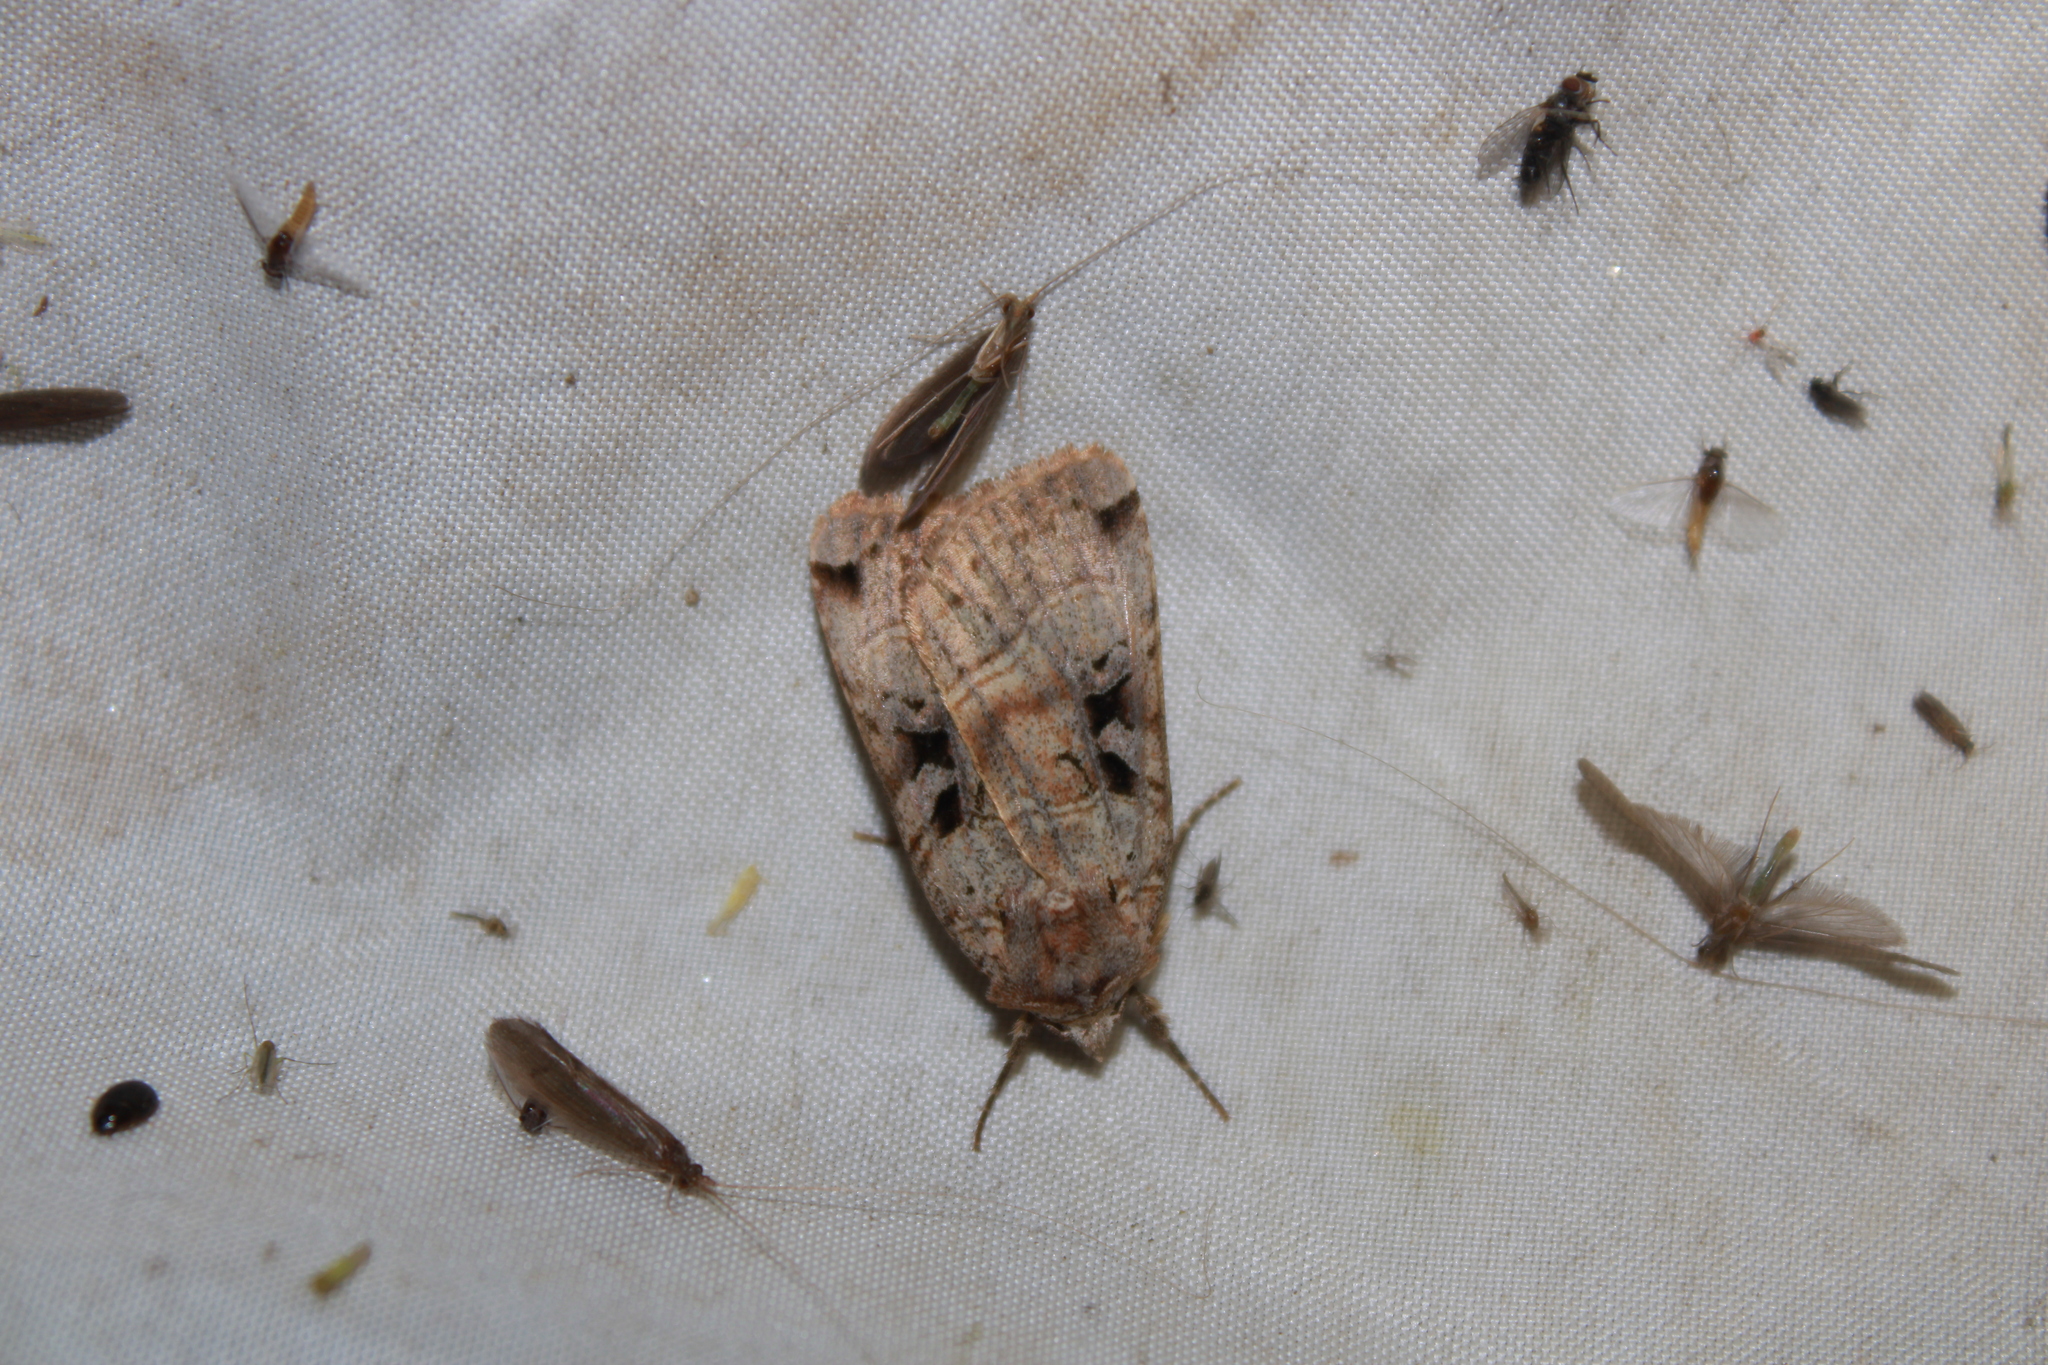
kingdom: Animalia
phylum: Arthropoda
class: Insecta
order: Lepidoptera
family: Noctuidae
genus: Xestia
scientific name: Xestia normaniana
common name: Norman's dart moth
